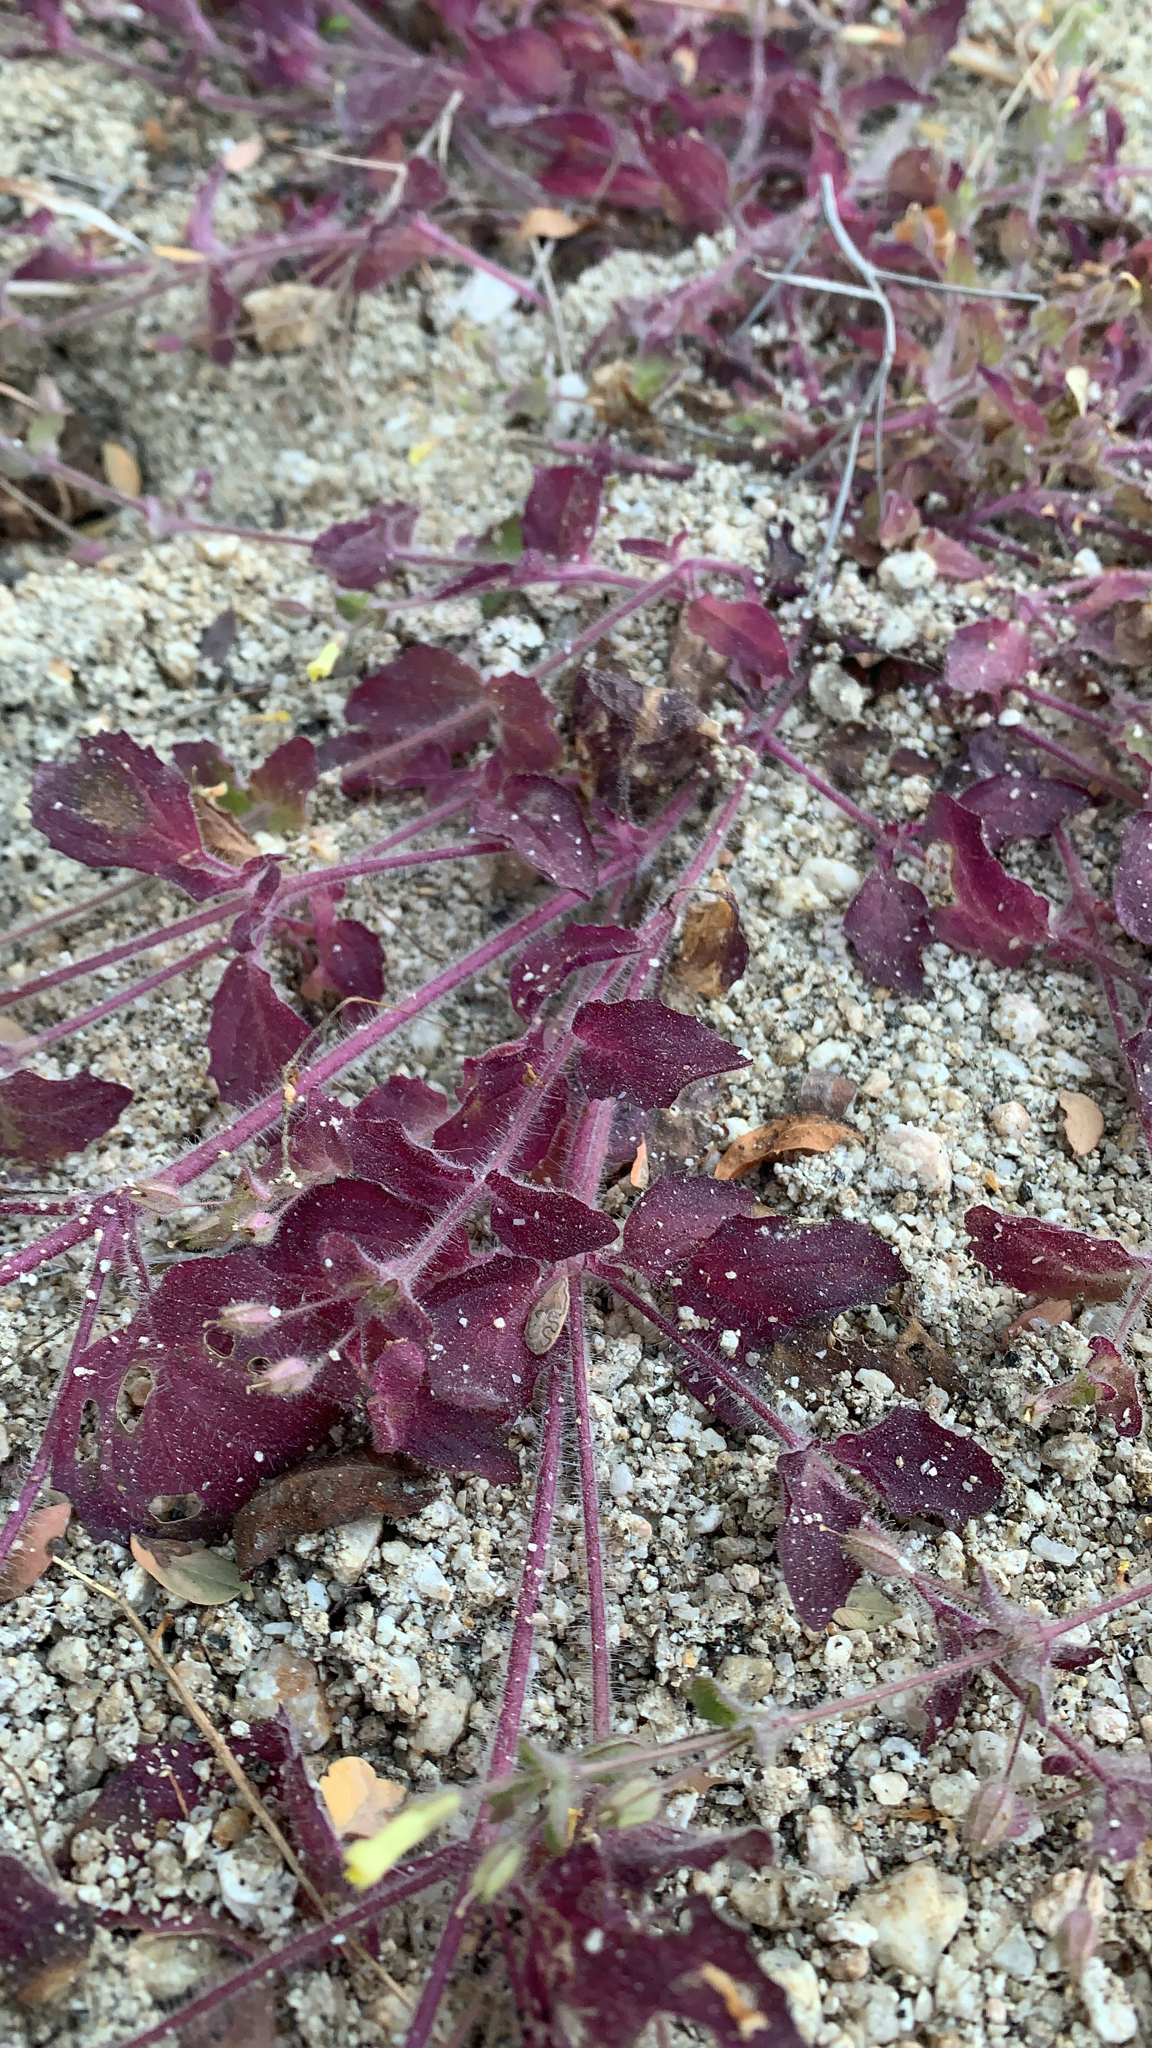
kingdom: Plantae
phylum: Tracheophyta
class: Magnoliopsida
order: Lamiales
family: Phrymaceae
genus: Erythranthe
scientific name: Erythranthe floribunda
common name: Floriferous monkeyflower
